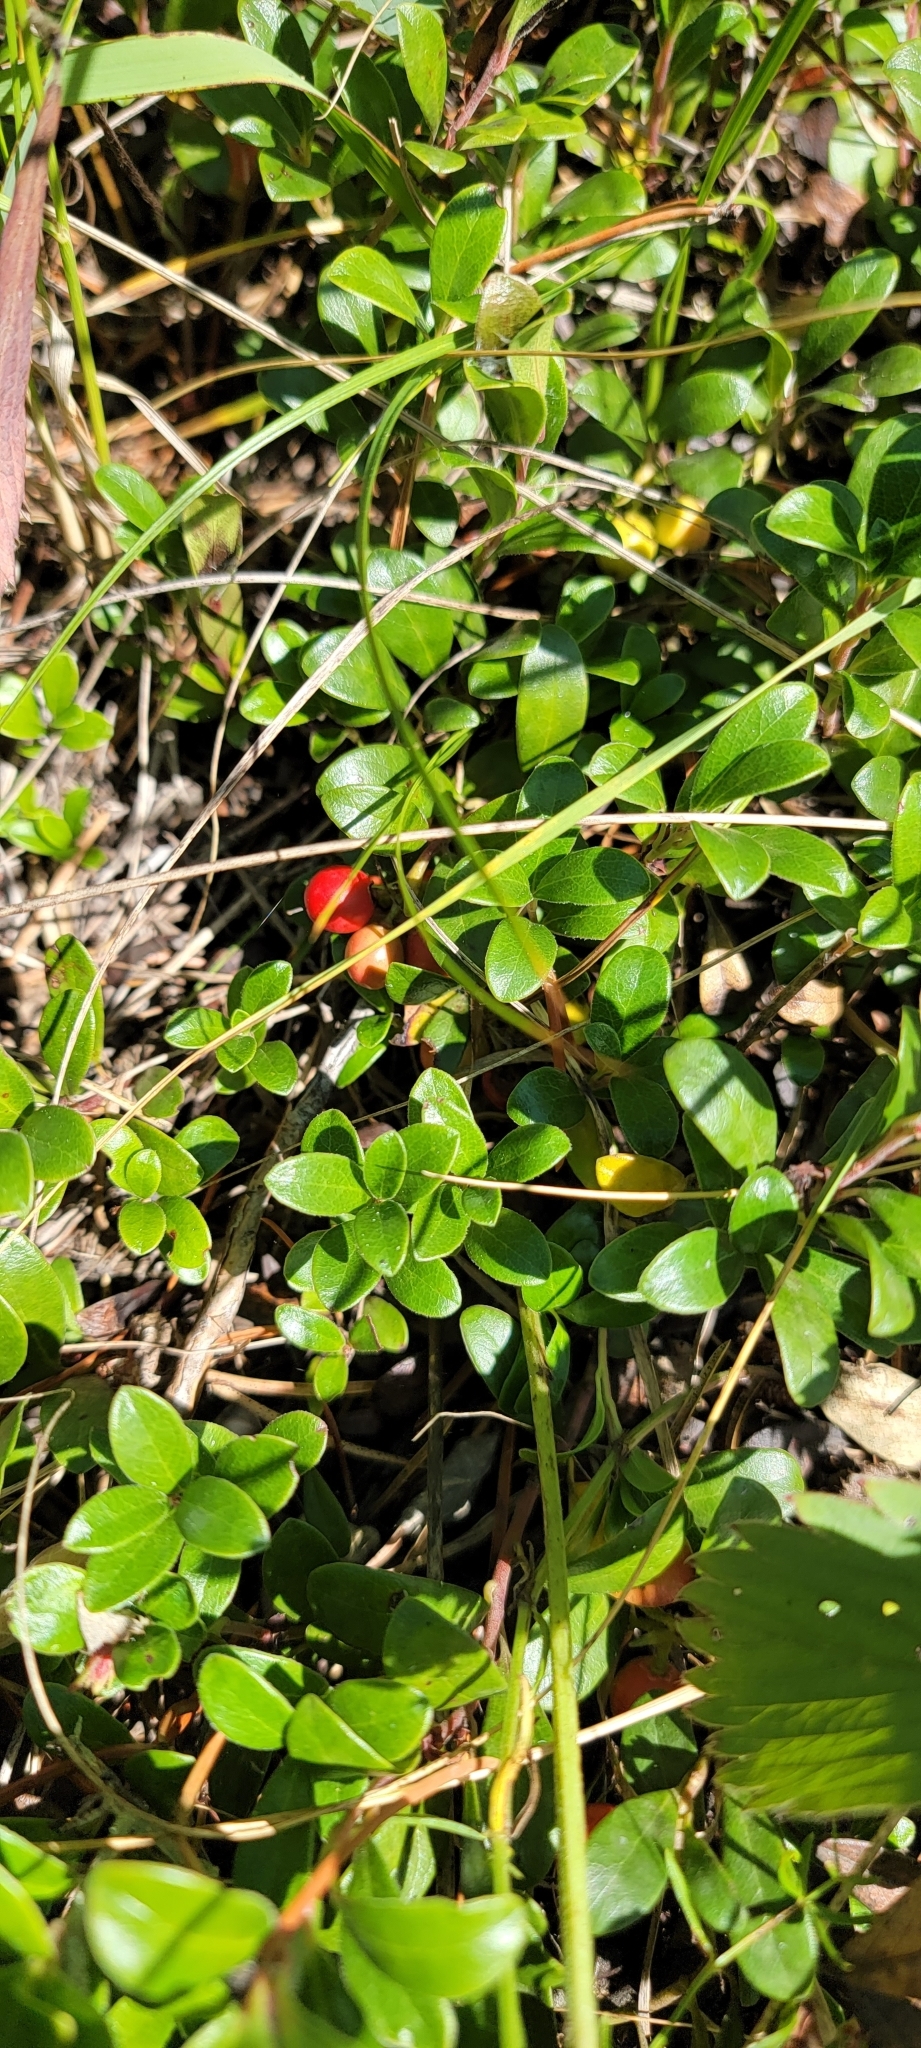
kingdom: Plantae
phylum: Tracheophyta
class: Magnoliopsida
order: Ericales
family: Ericaceae
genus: Arctostaphylos
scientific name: Arctostaphylos uva-ursi
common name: Bearberry
